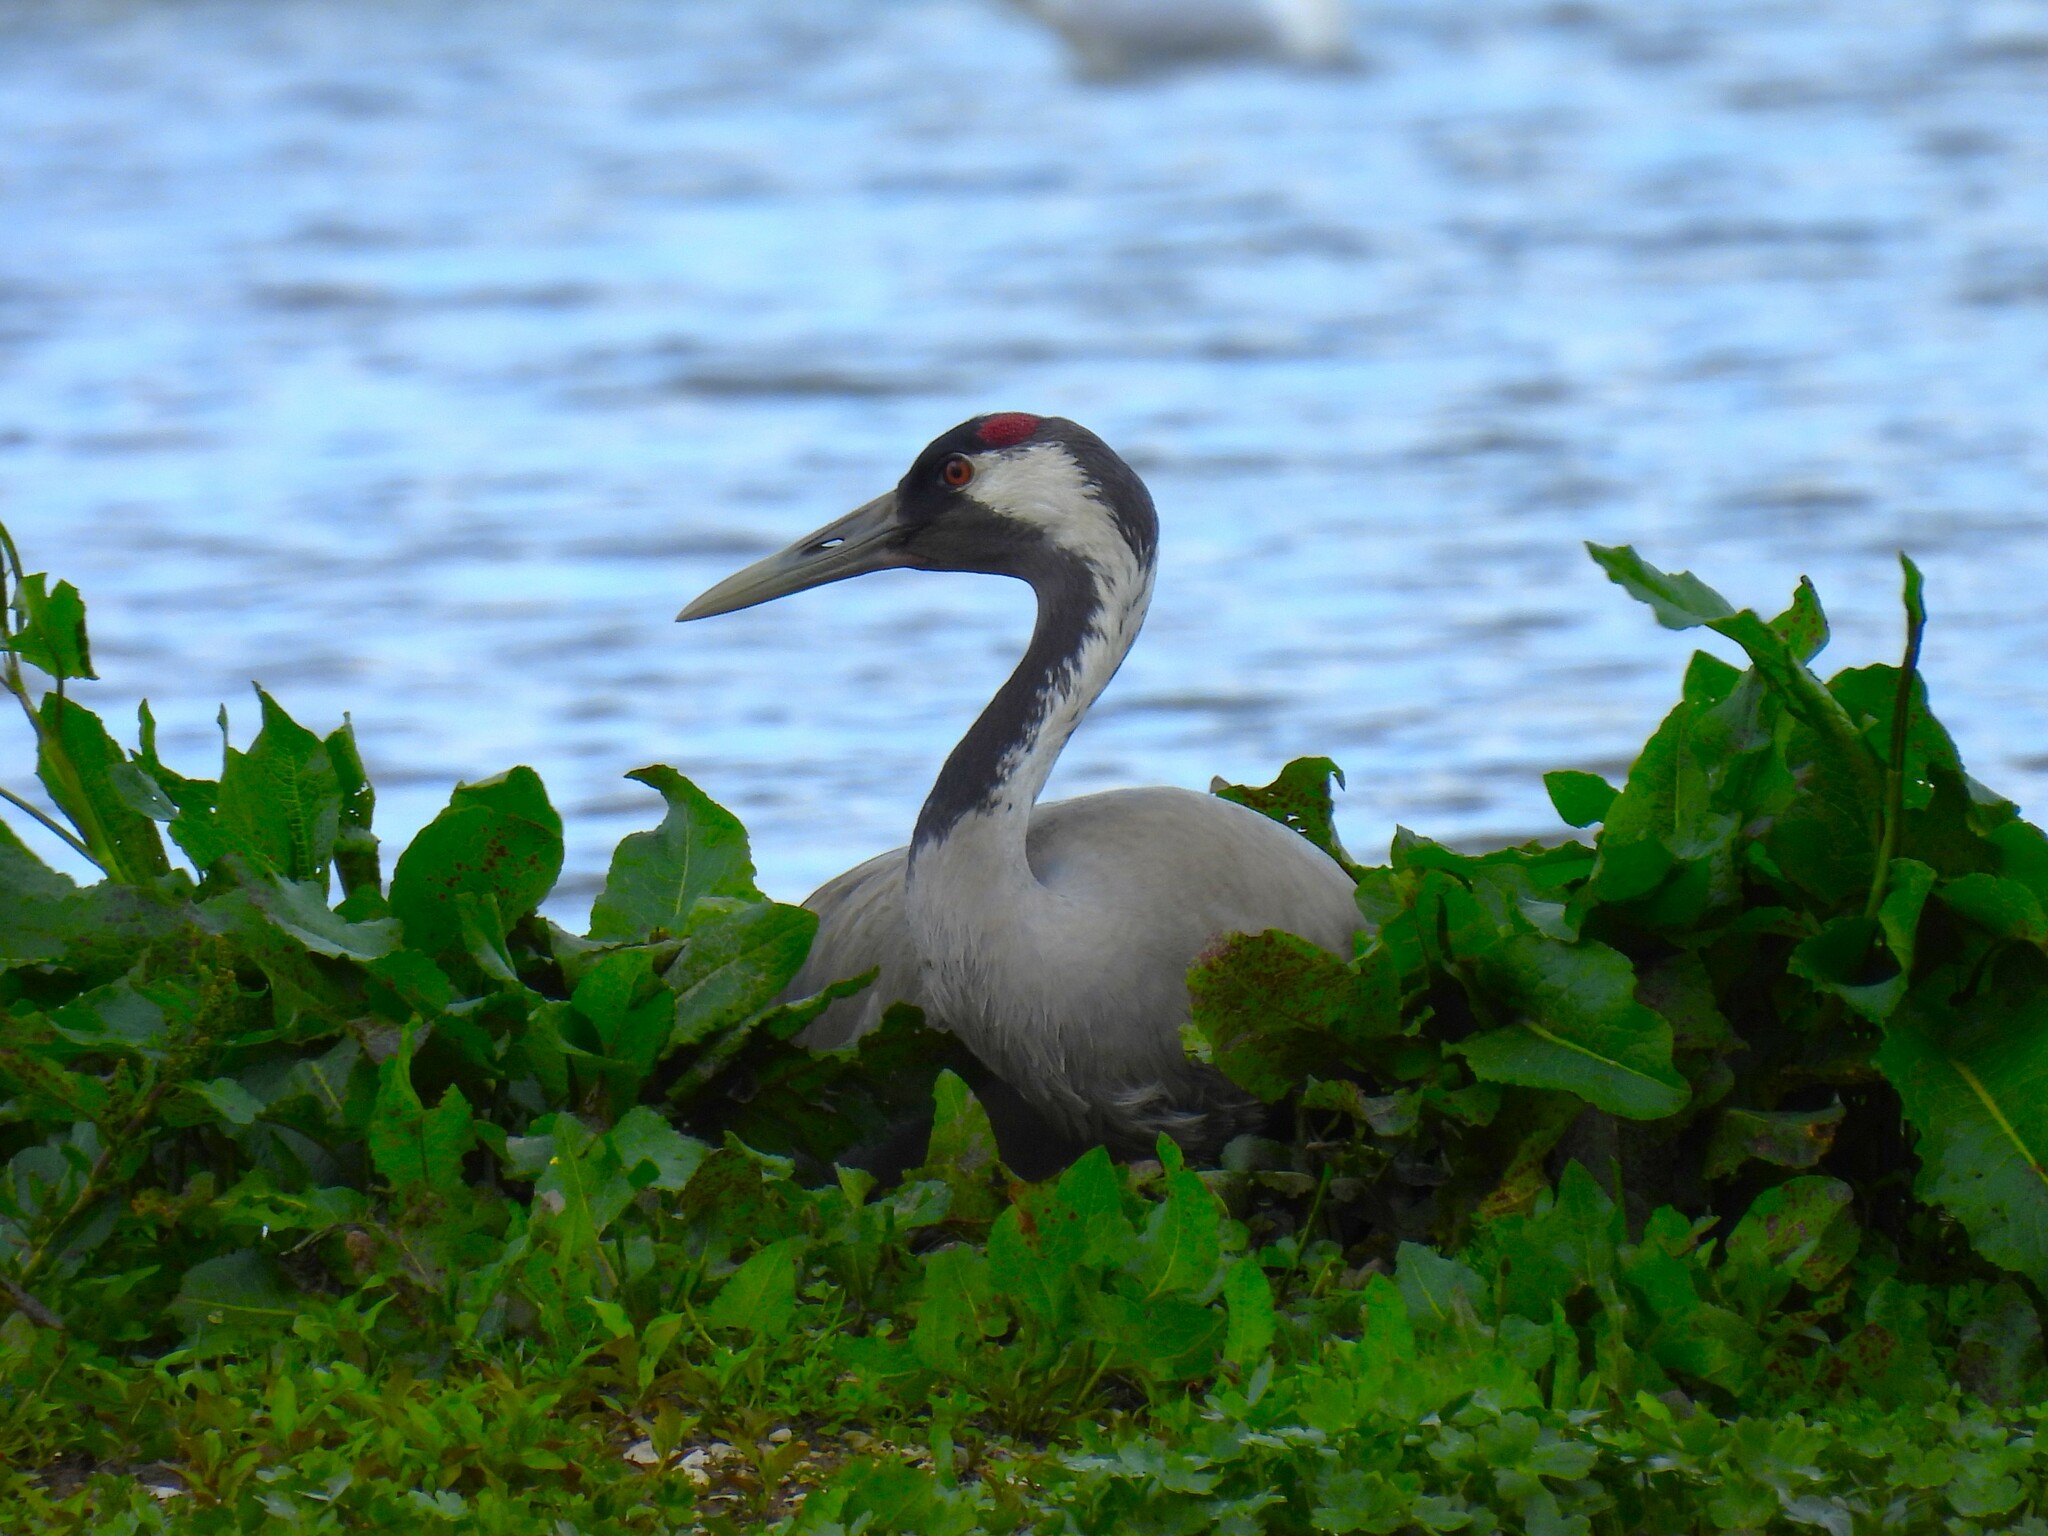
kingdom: Animalia
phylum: Chordata
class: Aves
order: Gruiformes
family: Gruidae
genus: Grus
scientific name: Grus grus
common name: Common crane
